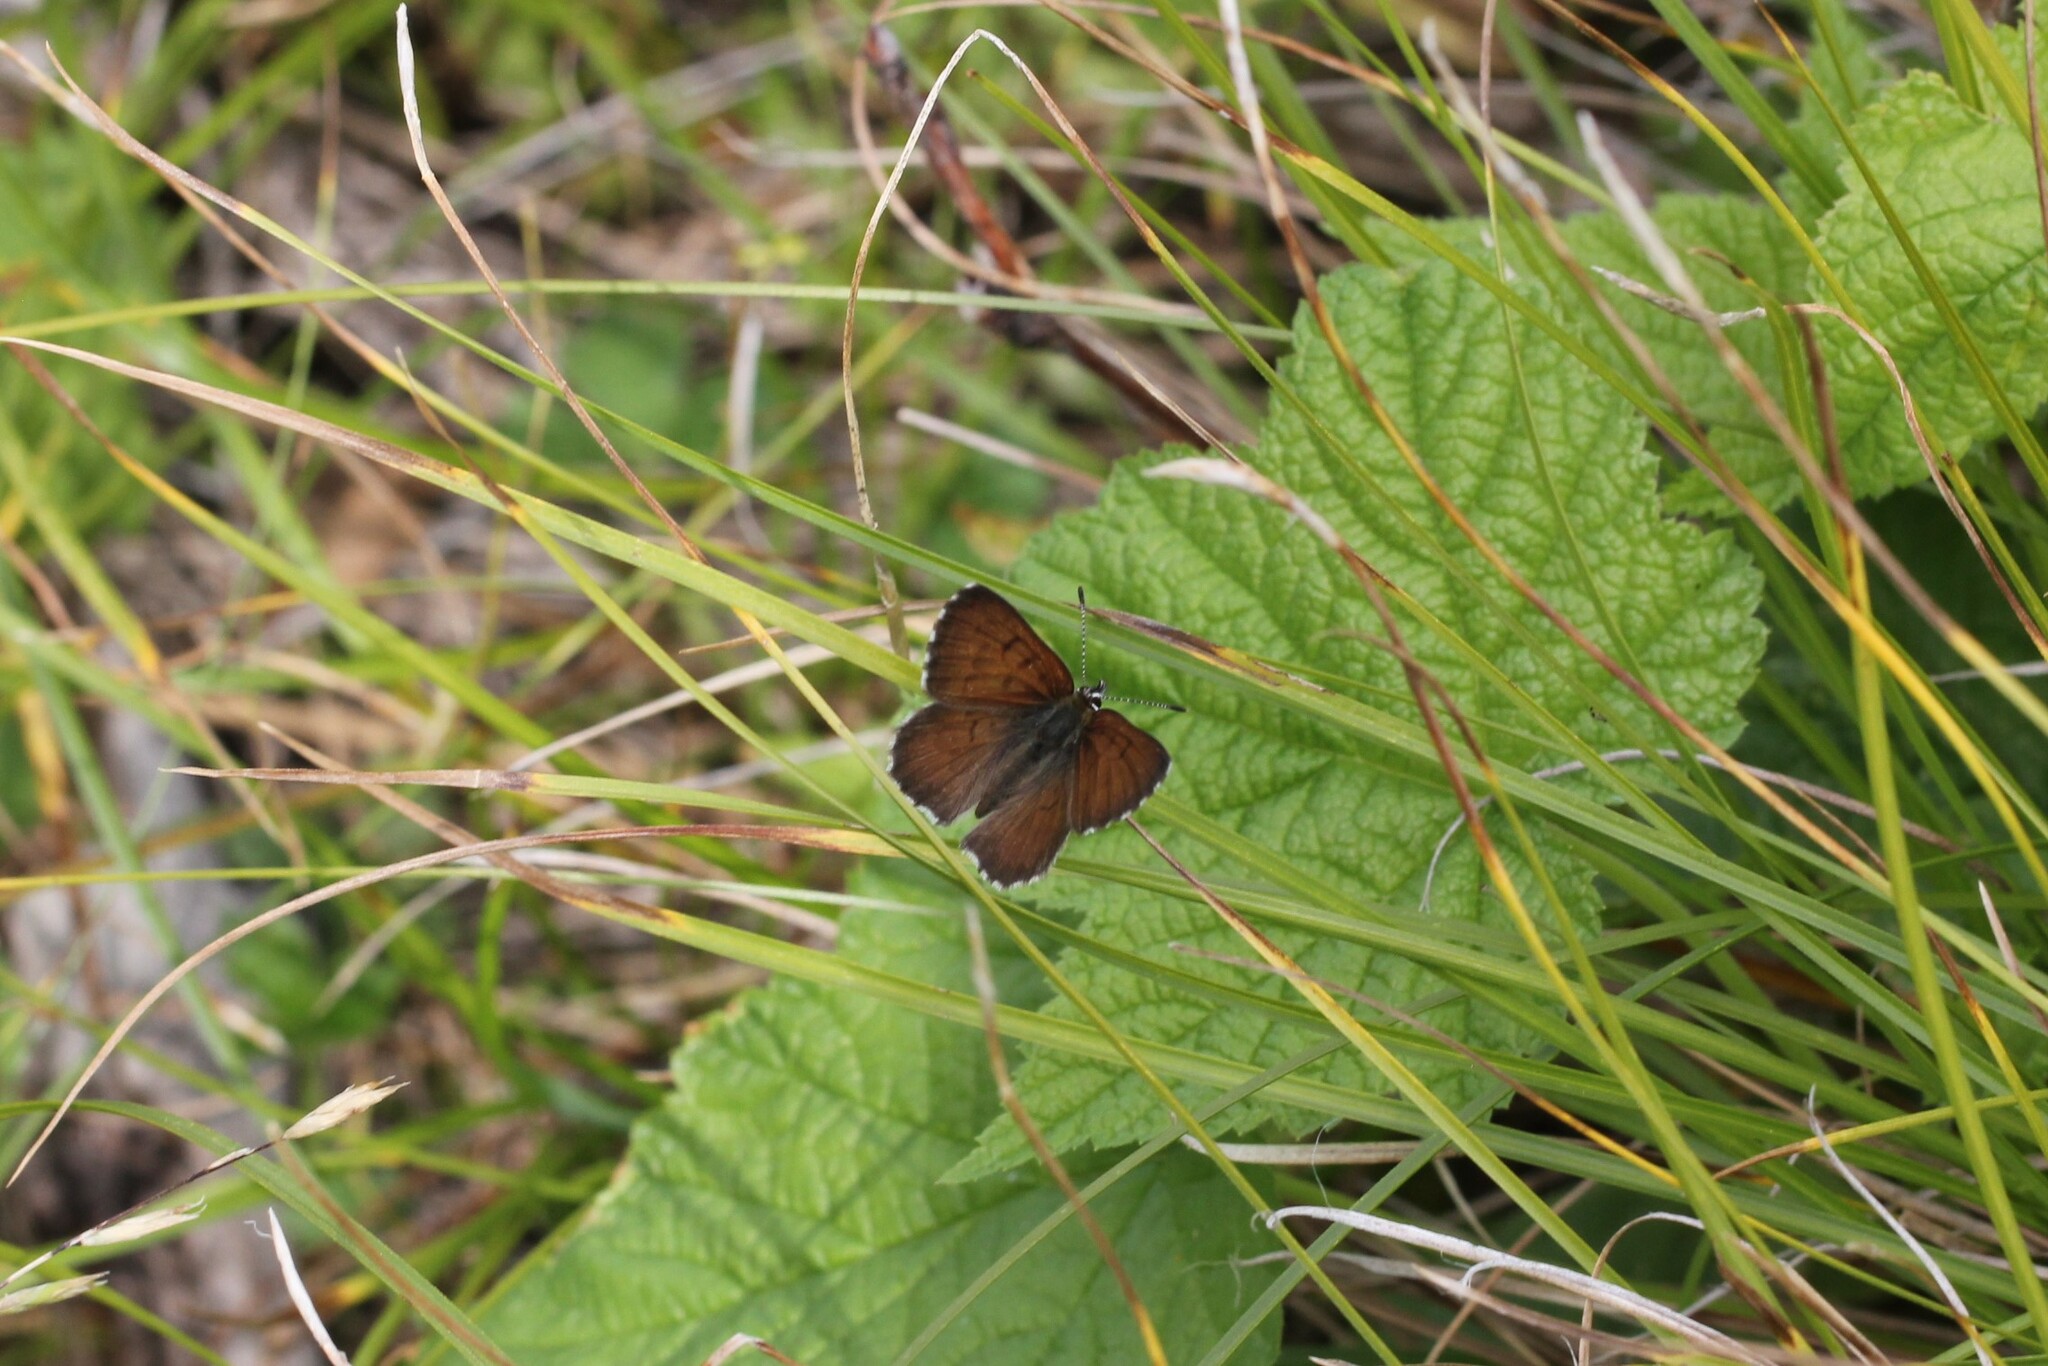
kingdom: Animalia
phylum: Arthropoda
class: Insecta
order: Lepidoptera
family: Lycaenidae
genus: Tharsalea
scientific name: Tharsalea mariposa
